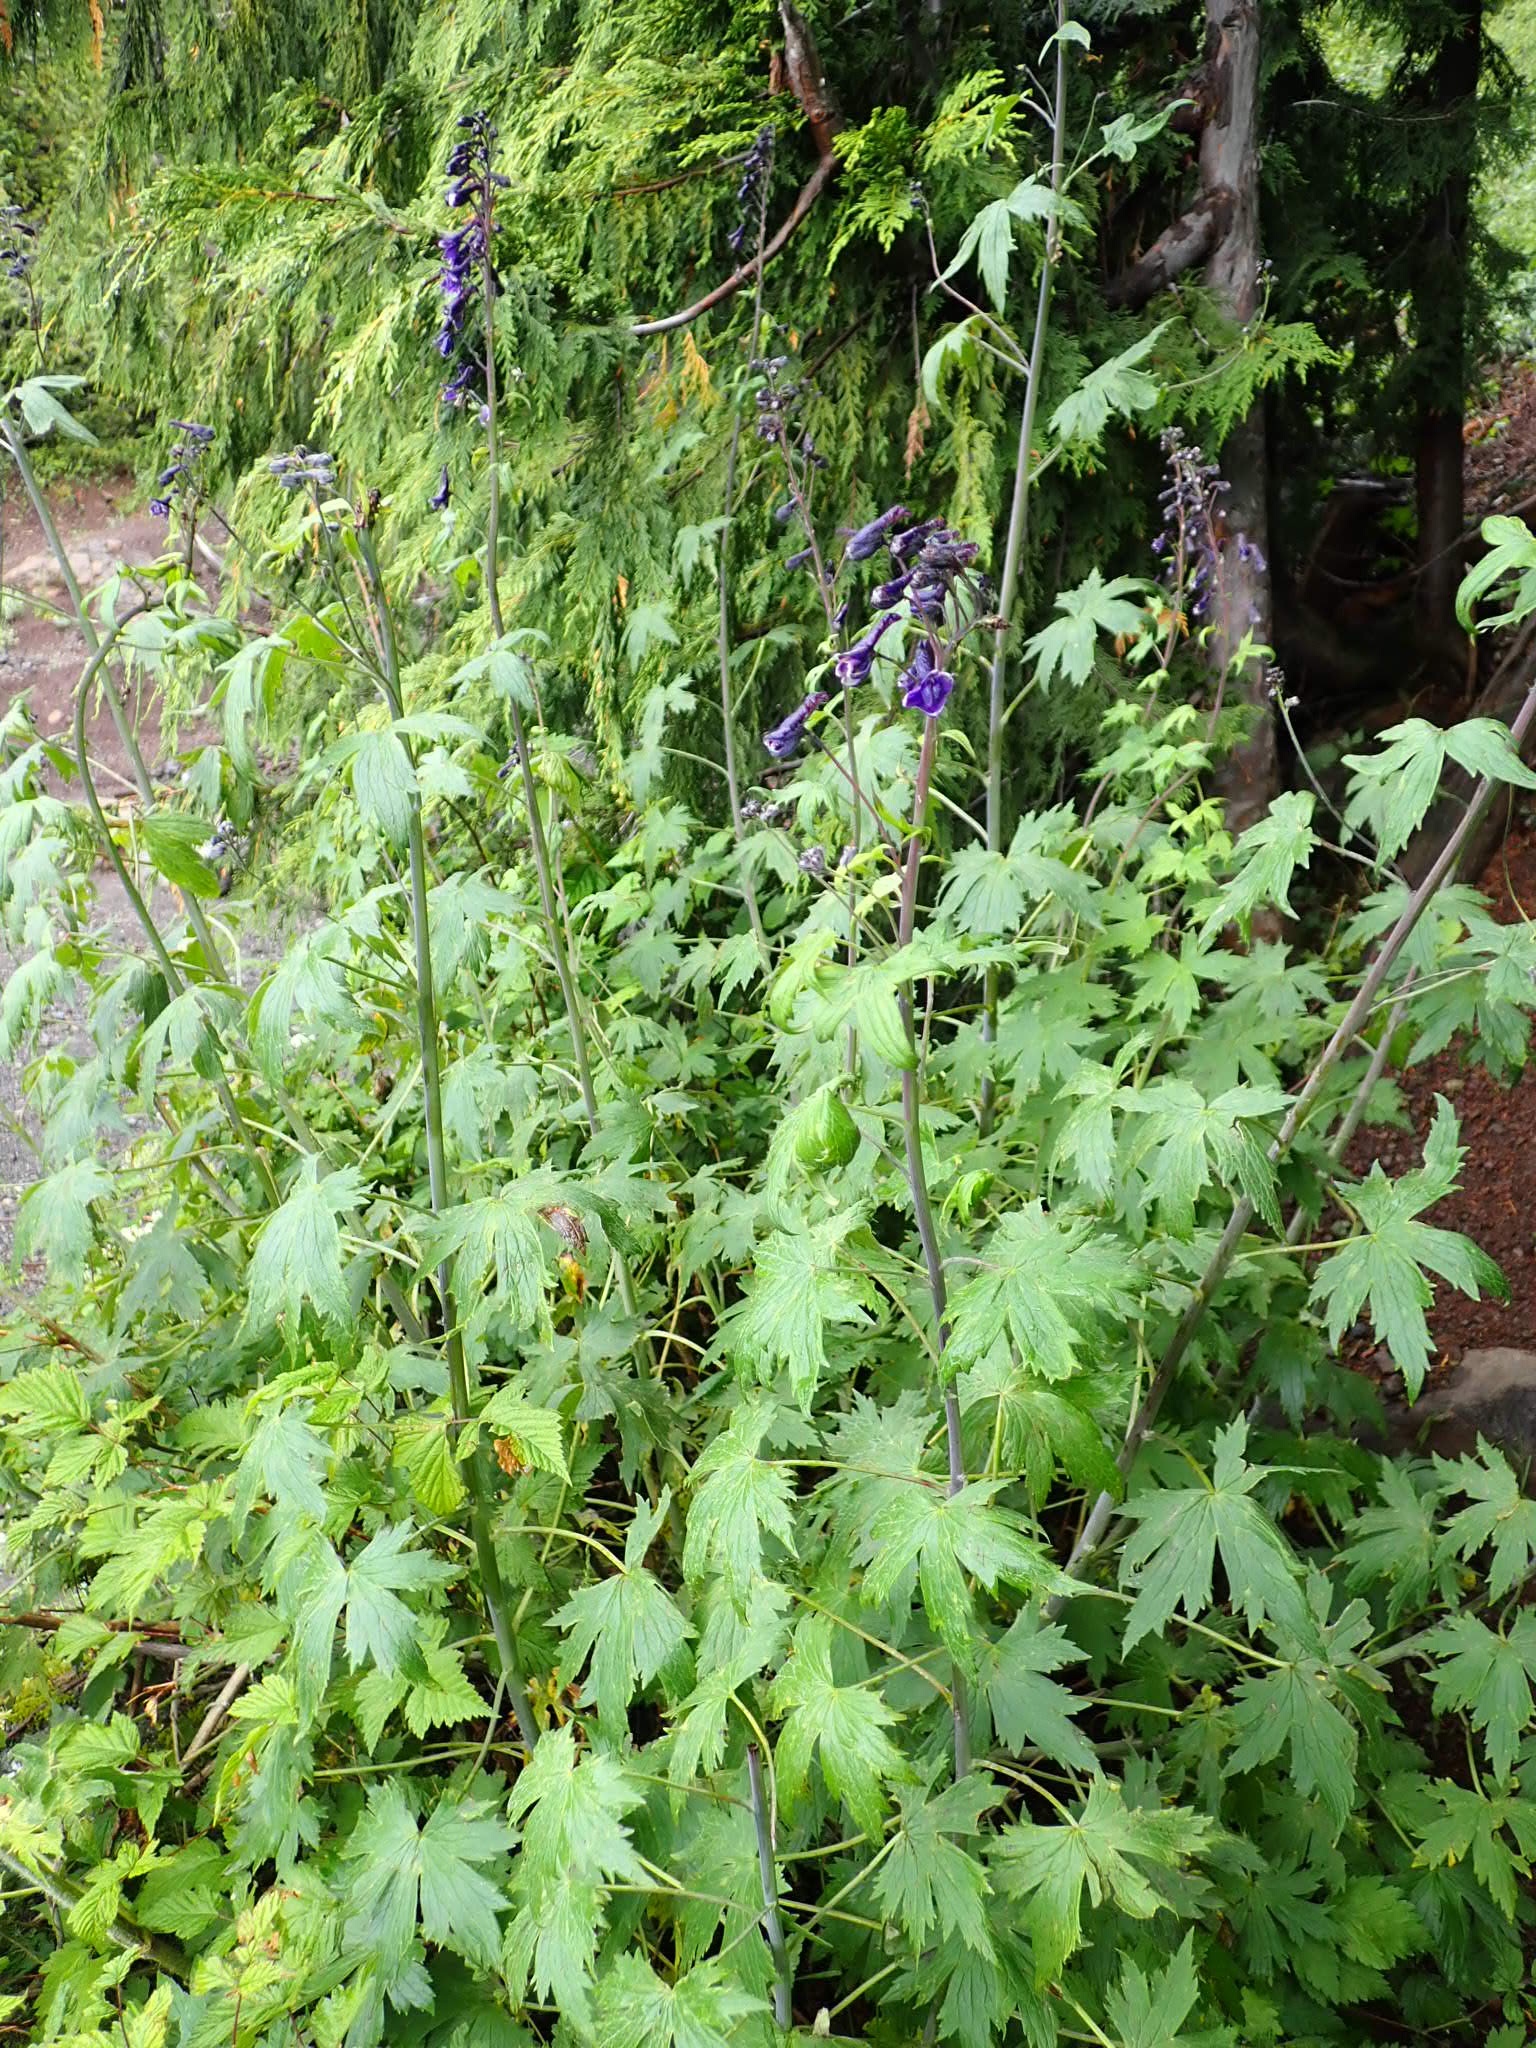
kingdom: Plantae
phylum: Tracheophyta
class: Magnoliopsida
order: Ranunculales
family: Ranunculaceae
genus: Delphinium
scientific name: Delphinium glaucum
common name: Brown's larkspur
